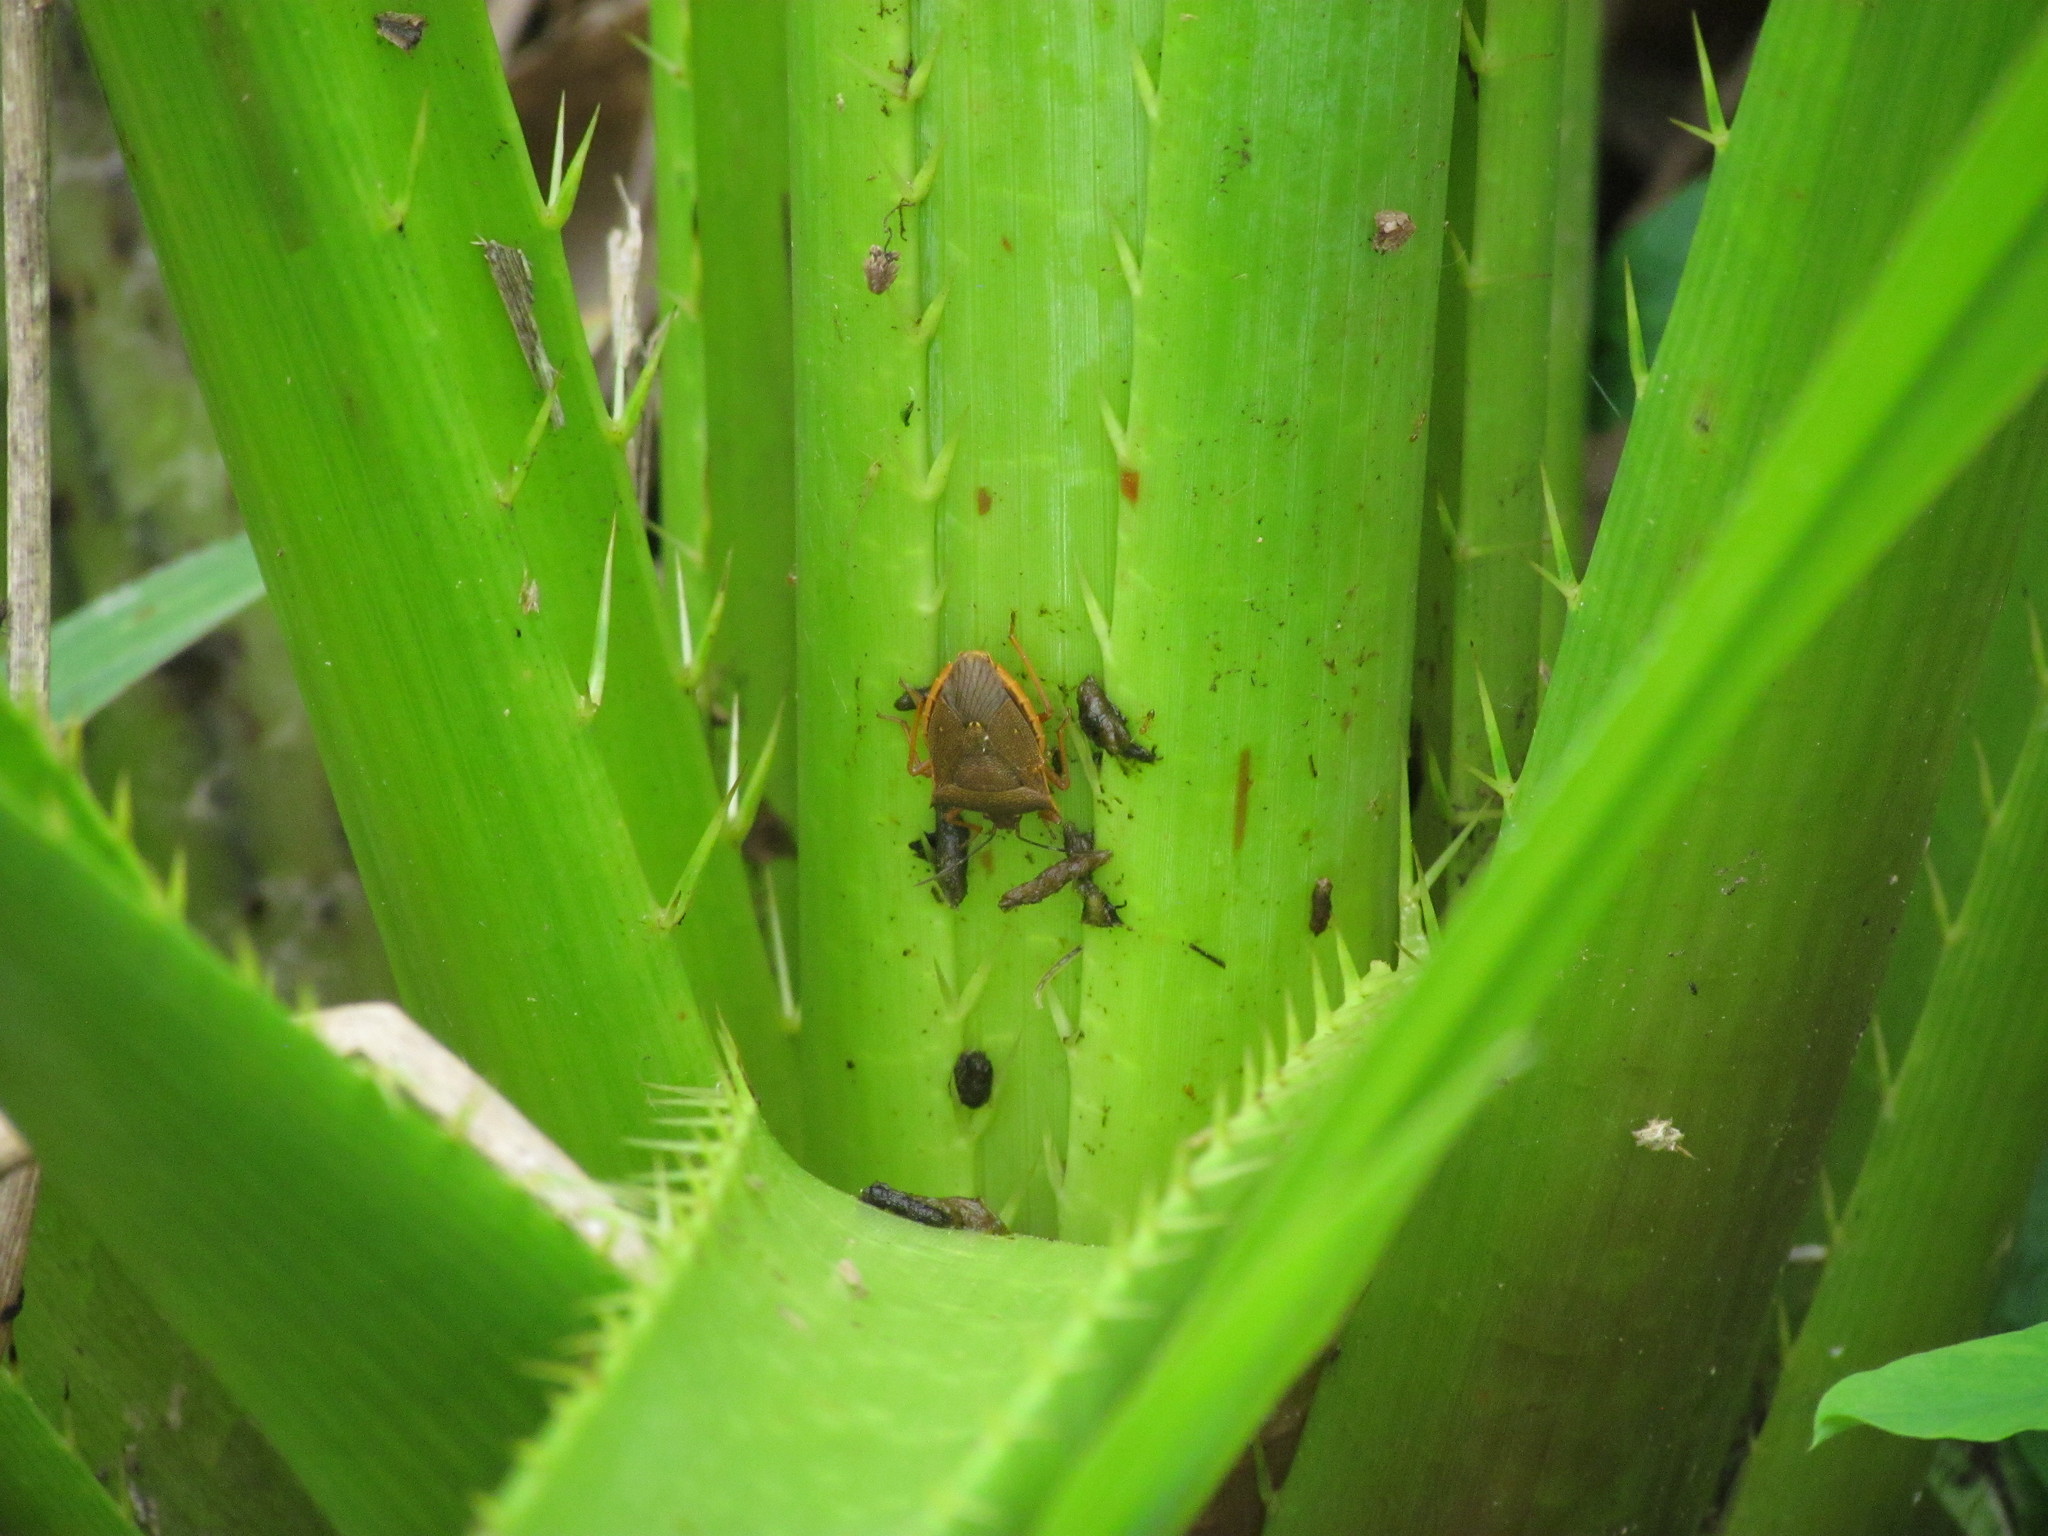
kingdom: Animalia
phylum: Arthropoda
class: Insecta
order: Hemiptera
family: Pentatomidae
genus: Euschistus
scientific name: Euschistus
